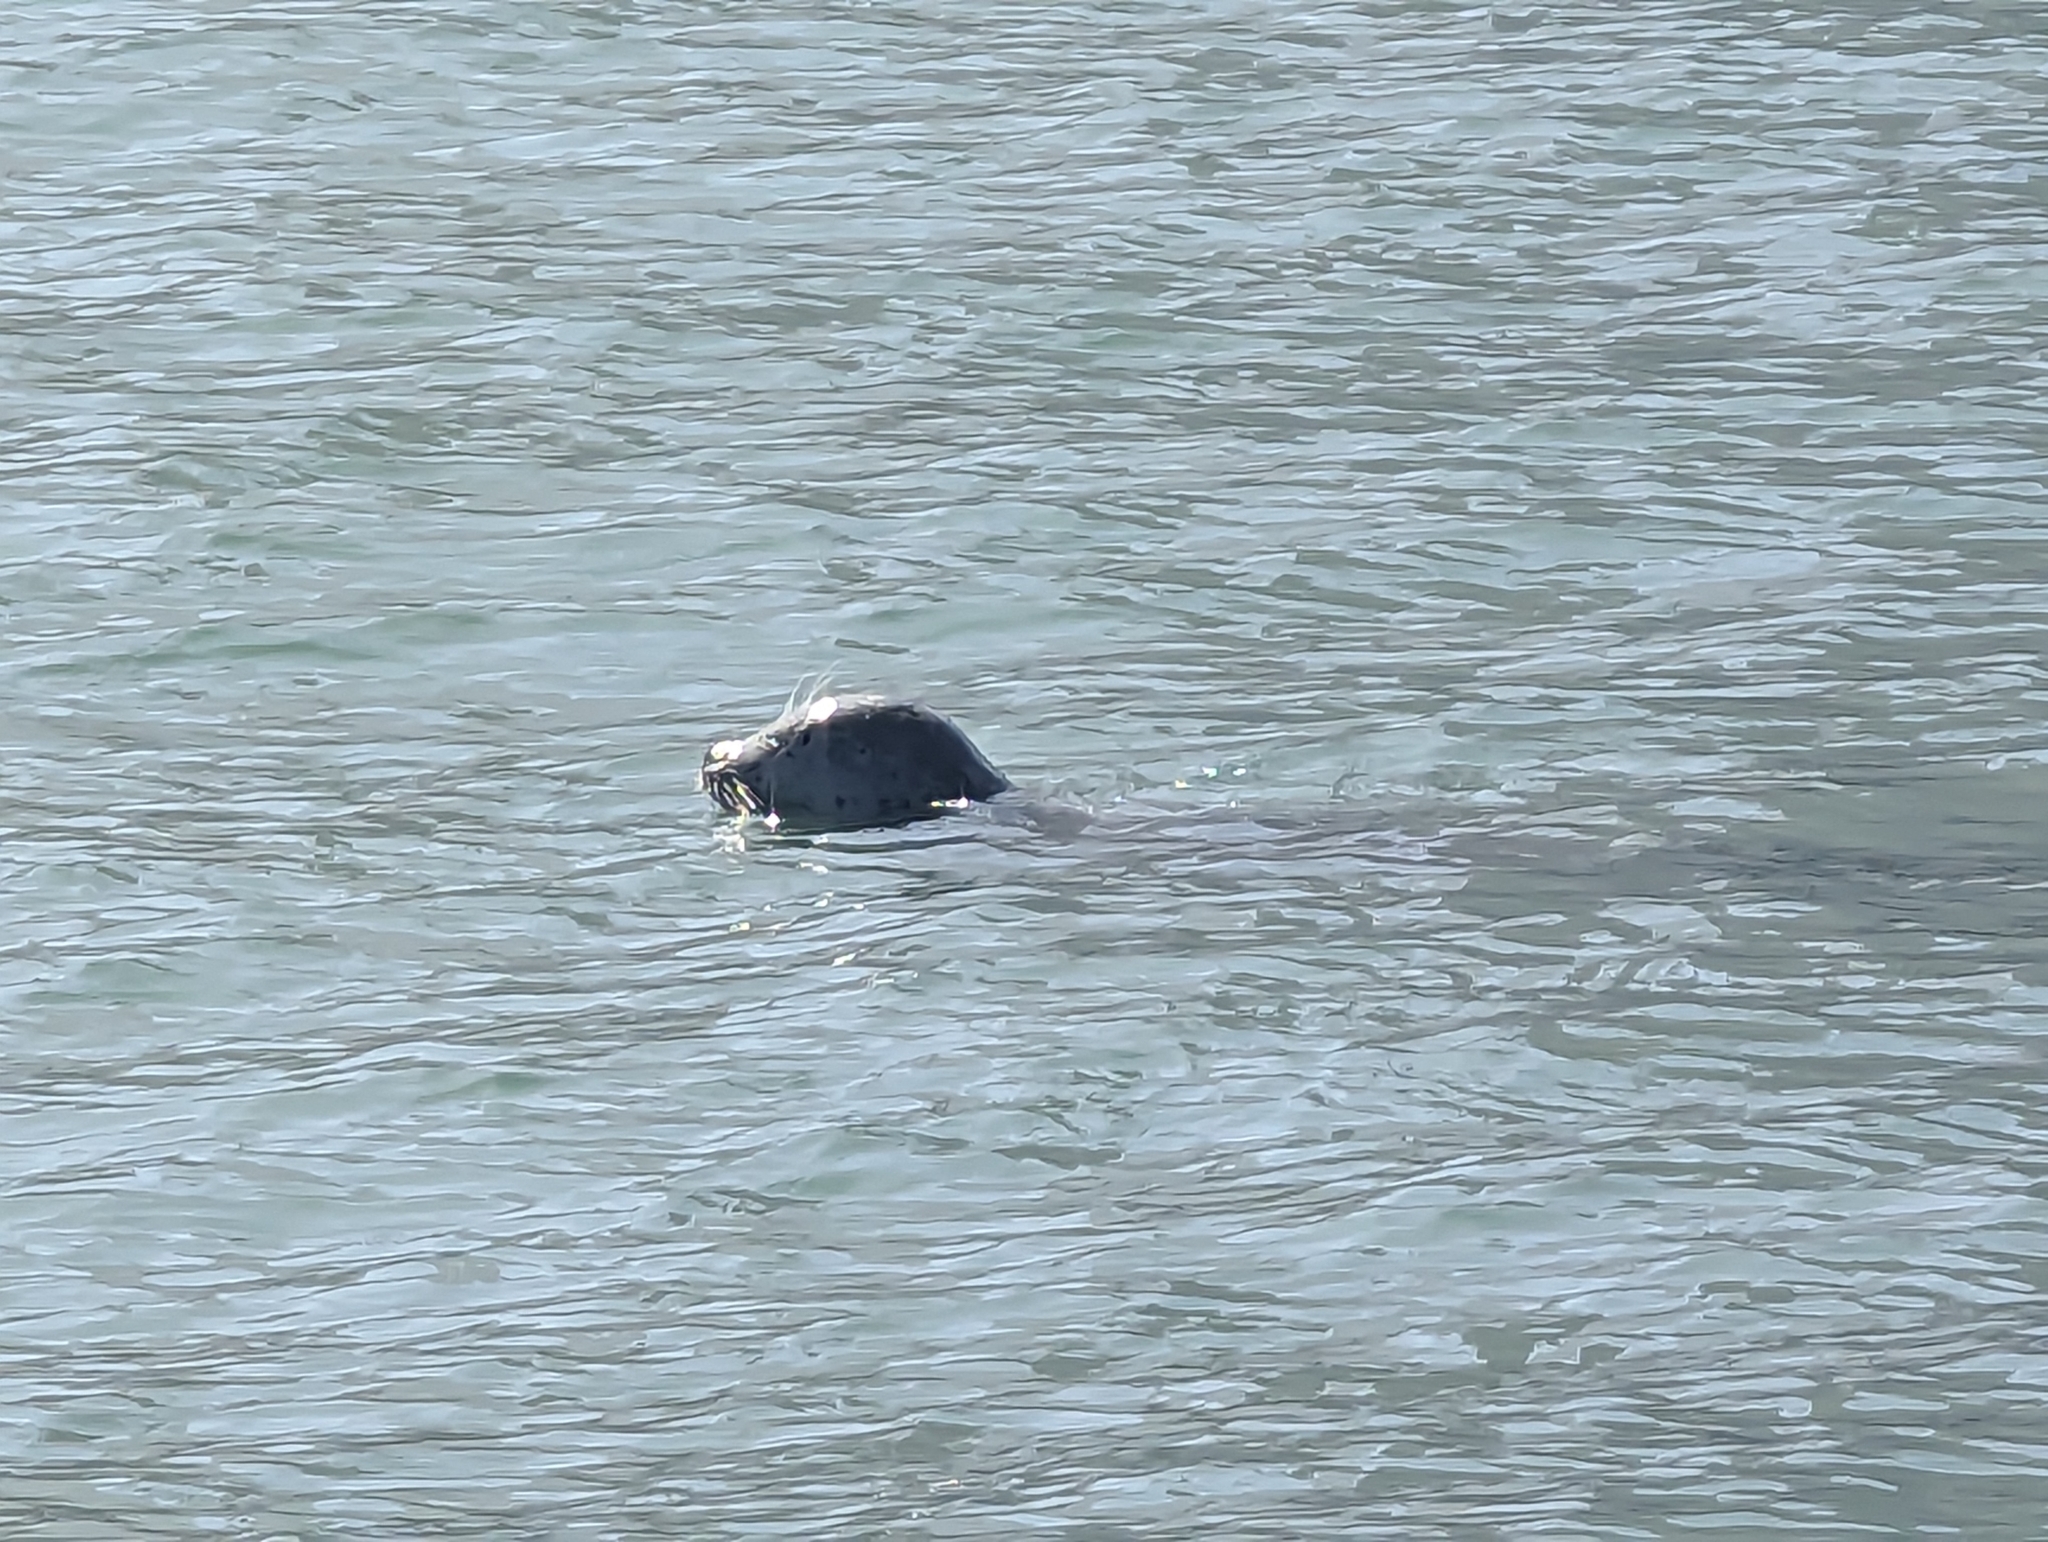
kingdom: Animalia
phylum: Chordata
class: Mammalia
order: Carnivora
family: Phocidae
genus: Phoca
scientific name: Phoca vitulina
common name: Harbor seal
